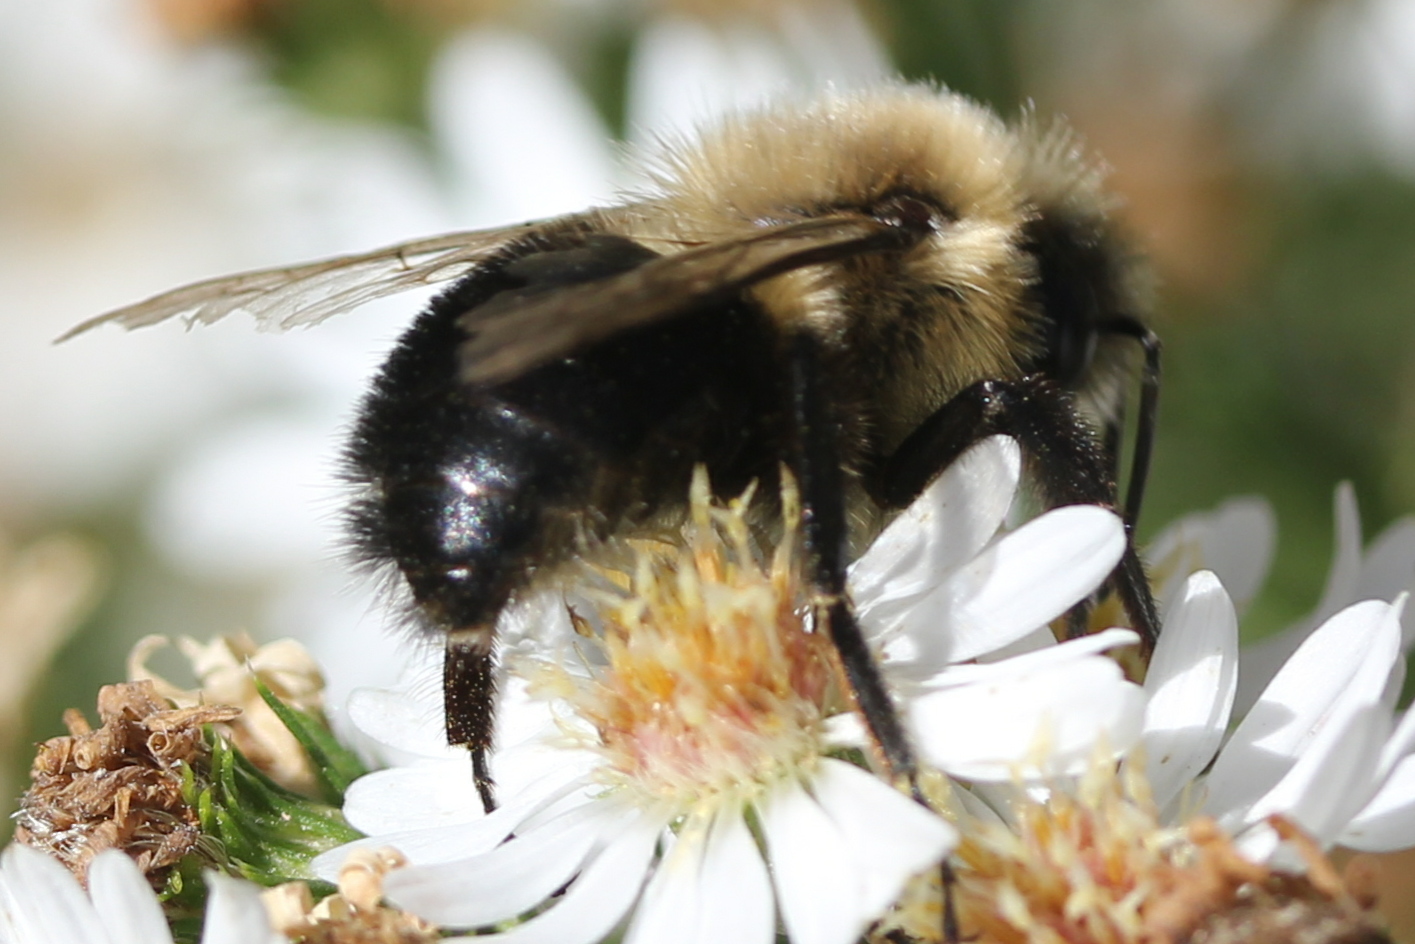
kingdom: Animalia
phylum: Arthropoda
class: Insecta
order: Hymenoptera
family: Apidae
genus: Bombus
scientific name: Bombus impatiens
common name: Common eastern bumble bee
